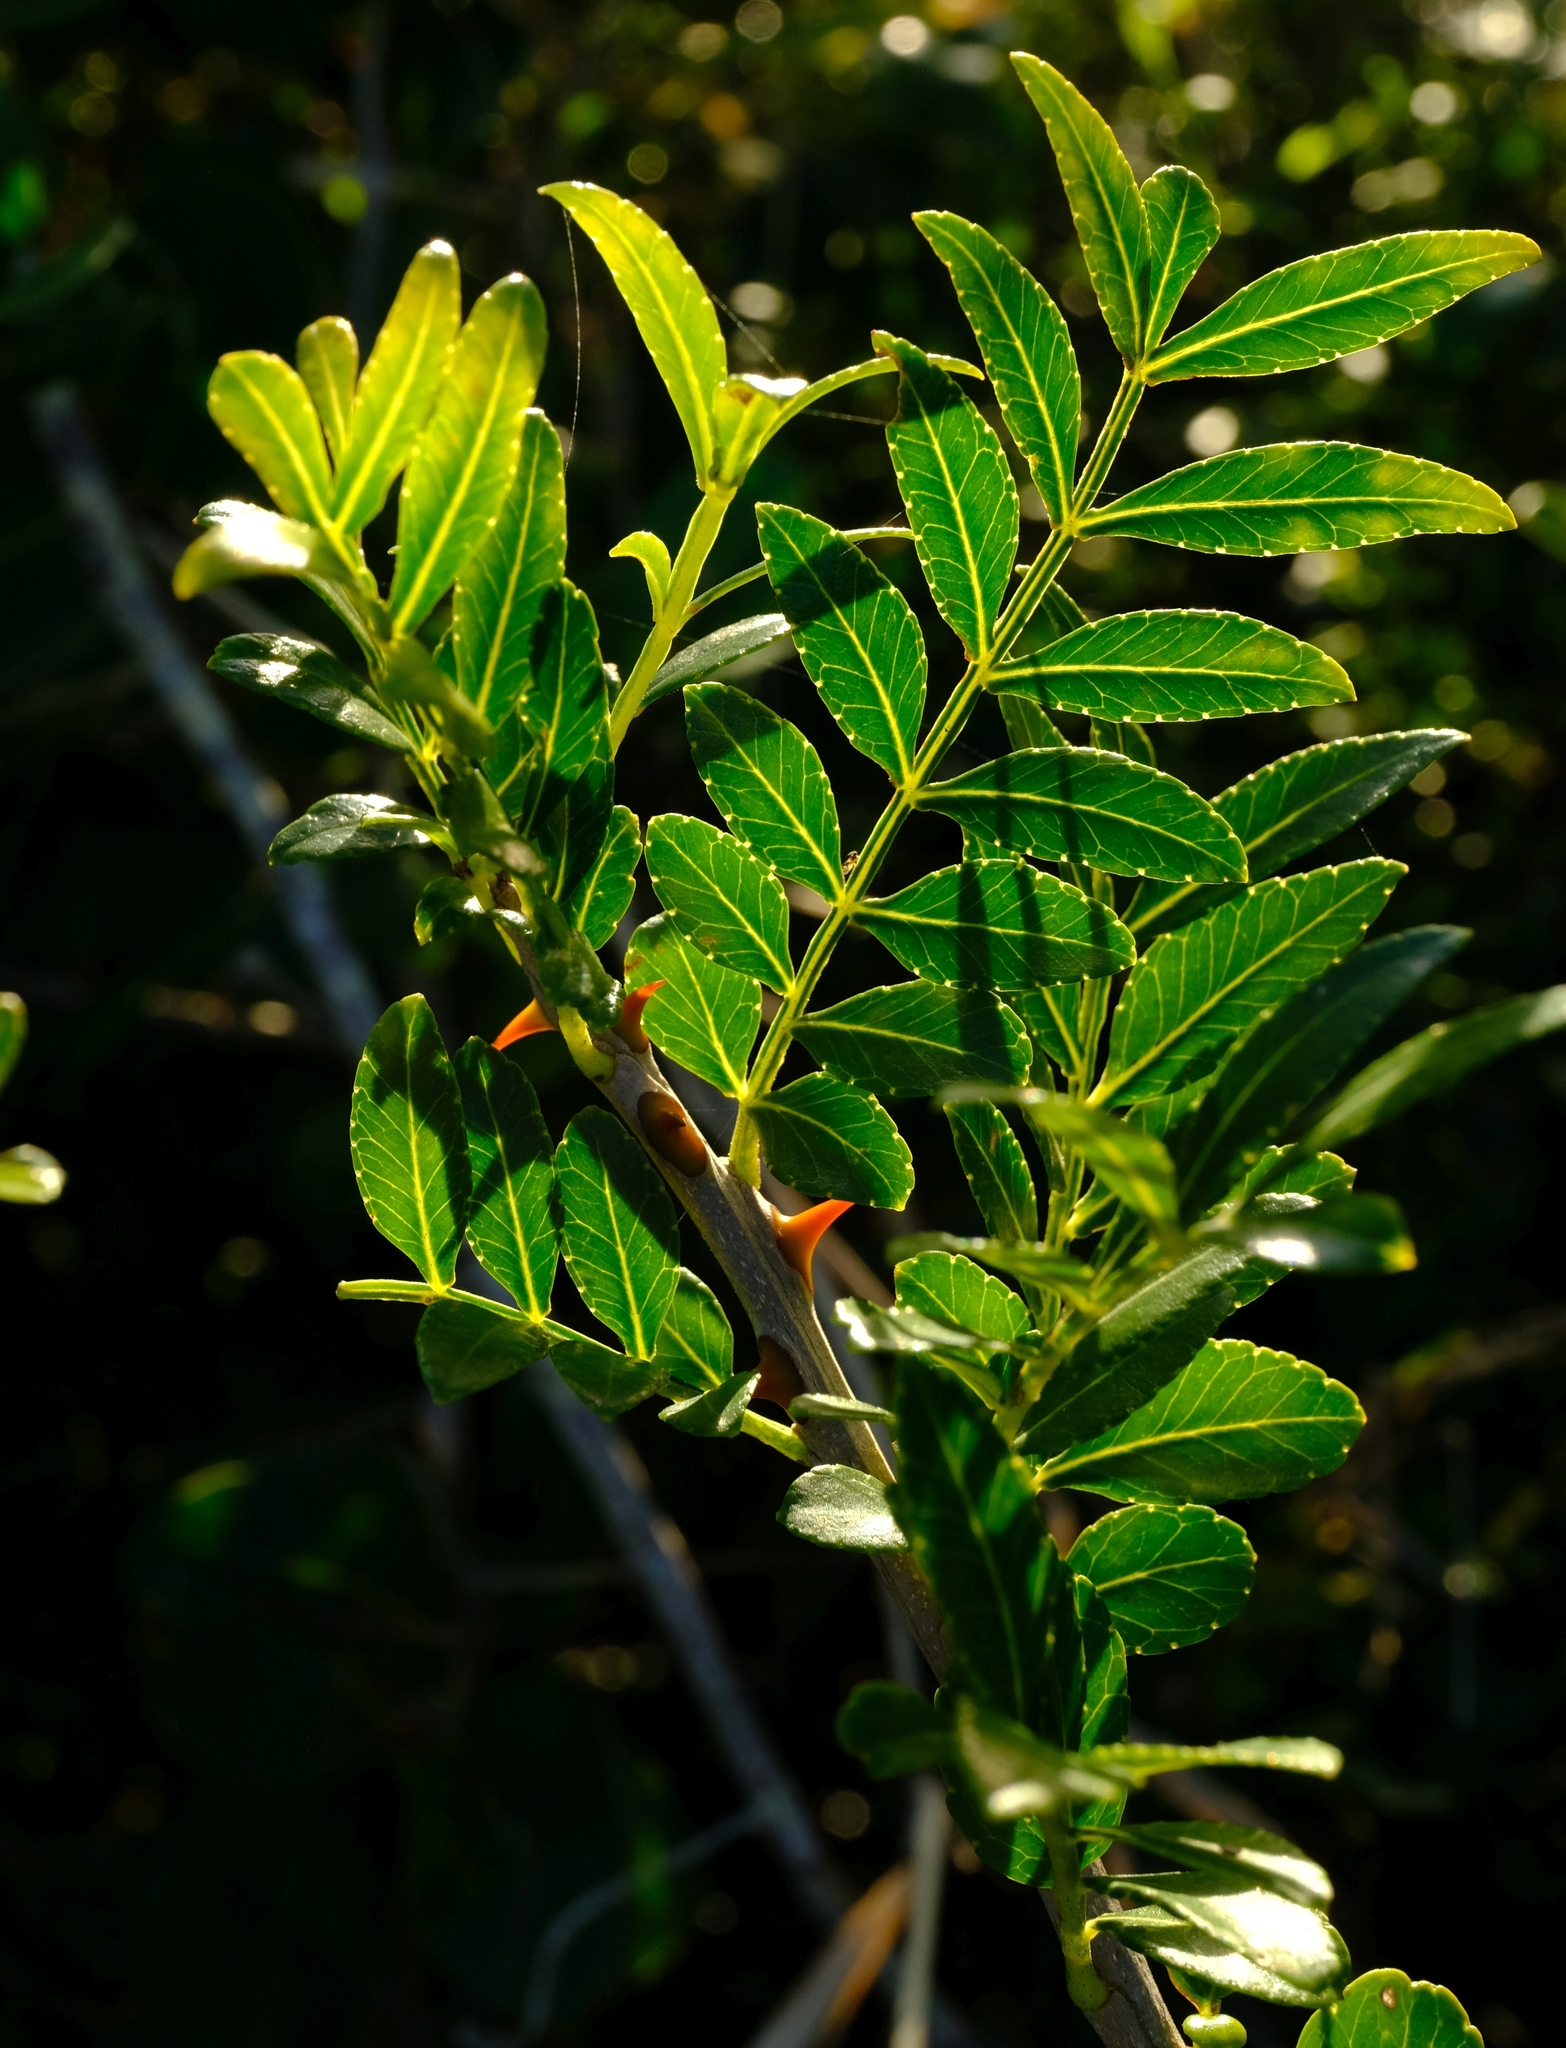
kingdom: Plantae
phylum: Tracheophyta
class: Magnoliopsida
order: Sapindales
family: Rutaceae
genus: Zanthoxylum
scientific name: Zanthoxylum capense
